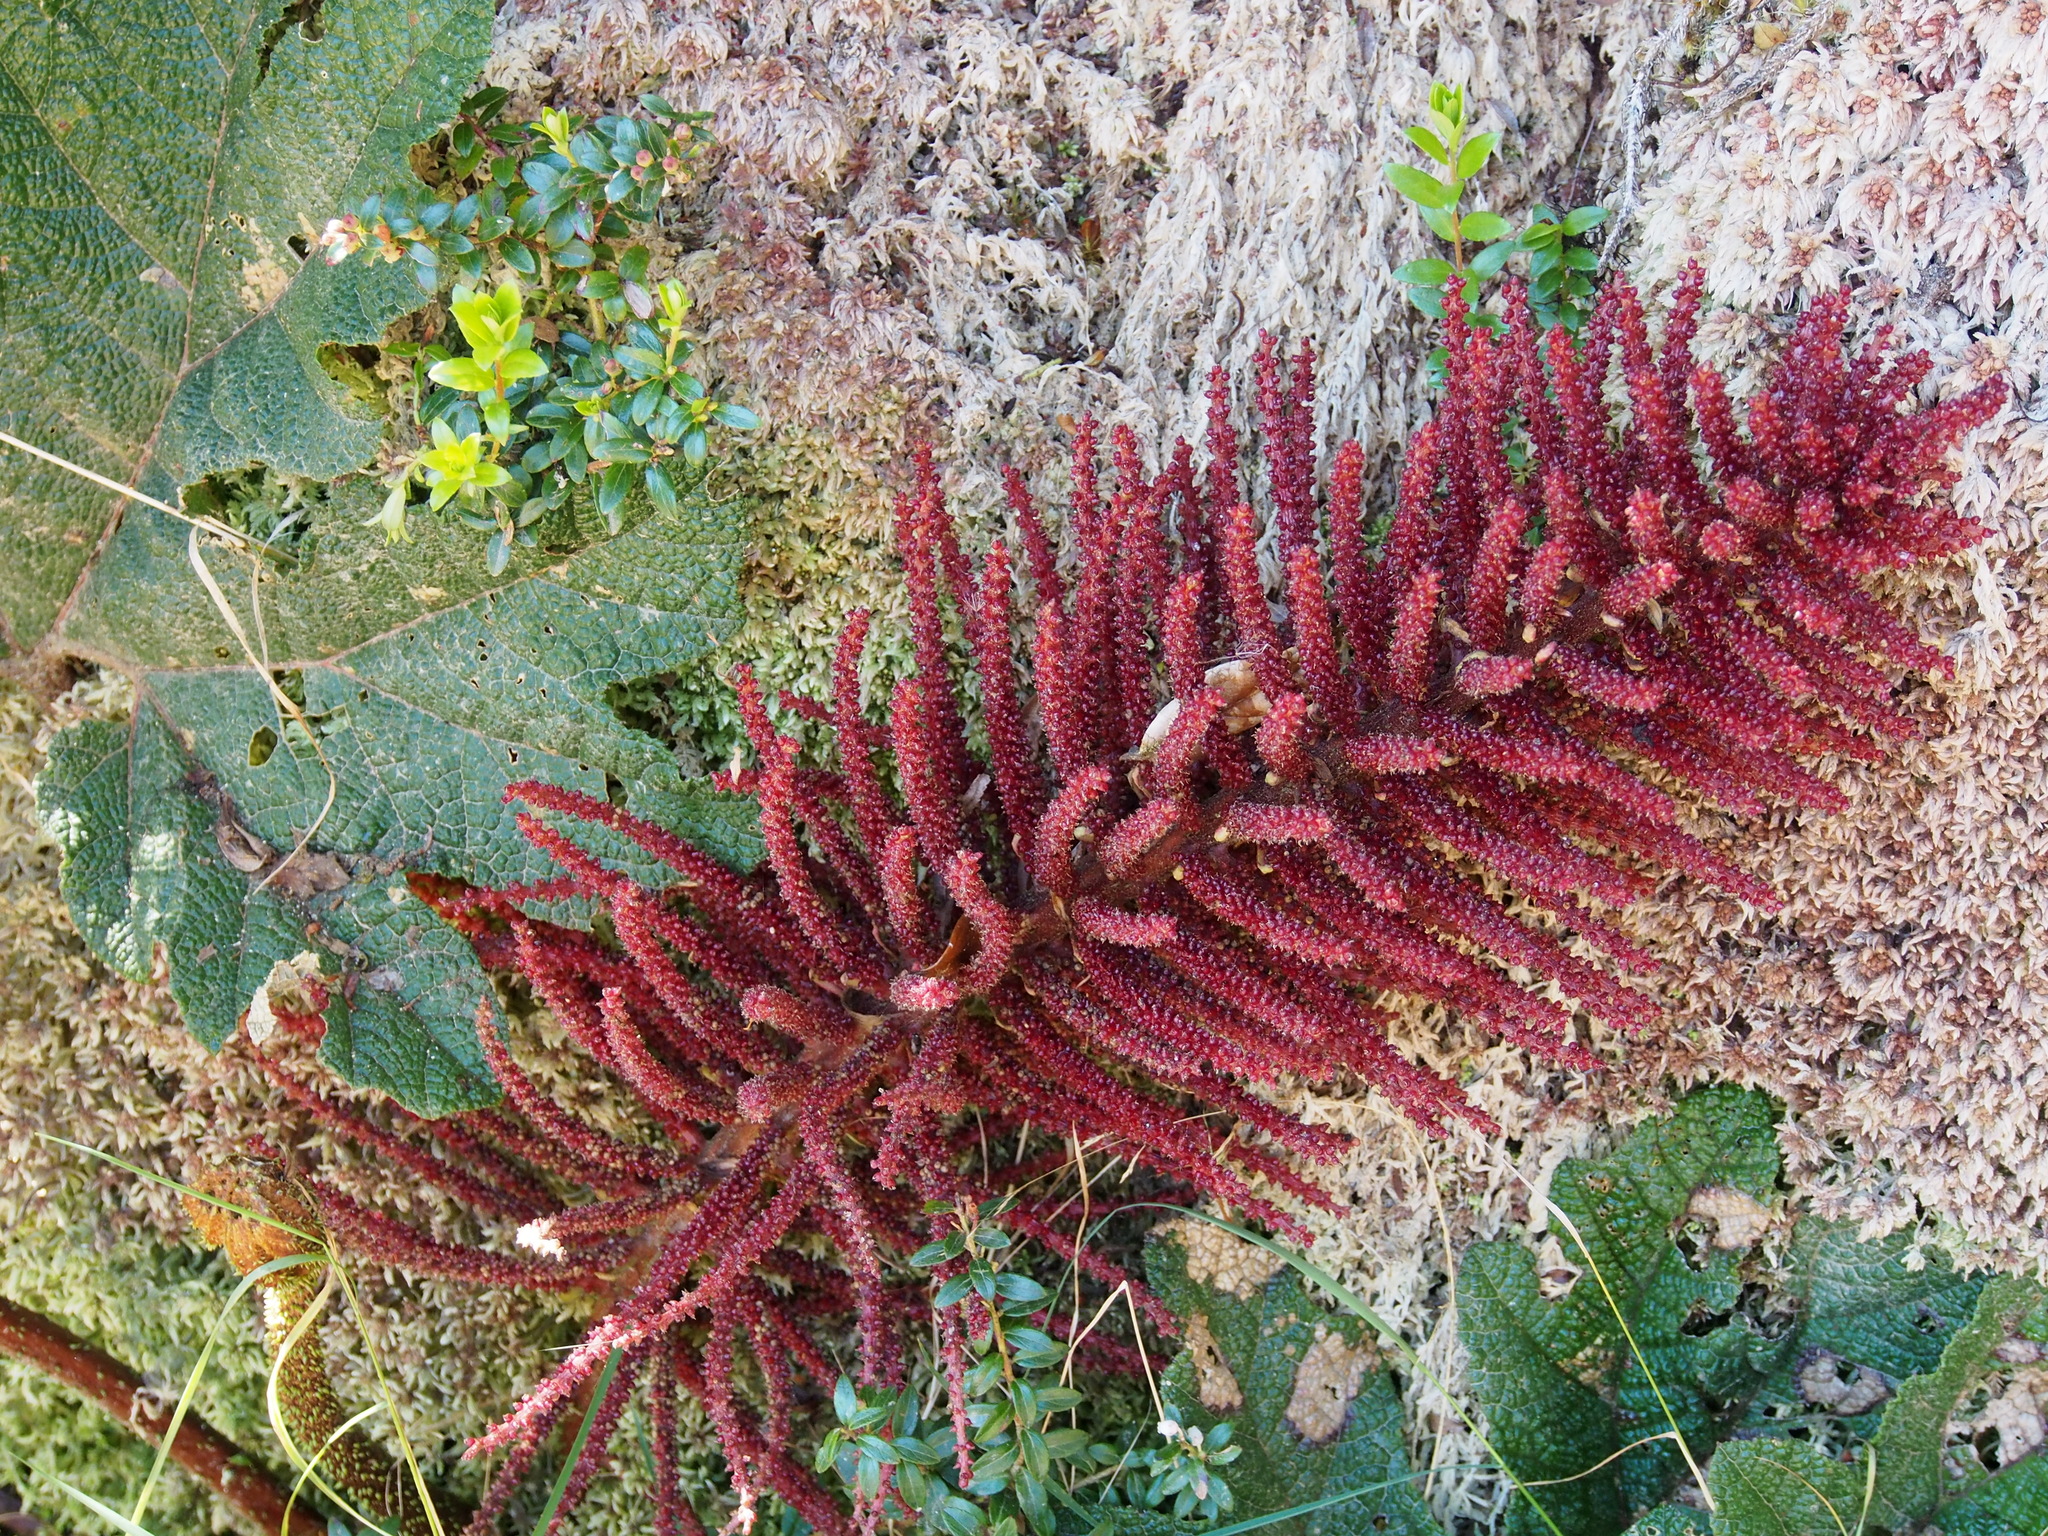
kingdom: Plantae
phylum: Tracheophyta
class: Magnoliopsida
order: Gunnerales
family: Gunneraceae
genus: Gunnera
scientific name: Gunnera talamancana
